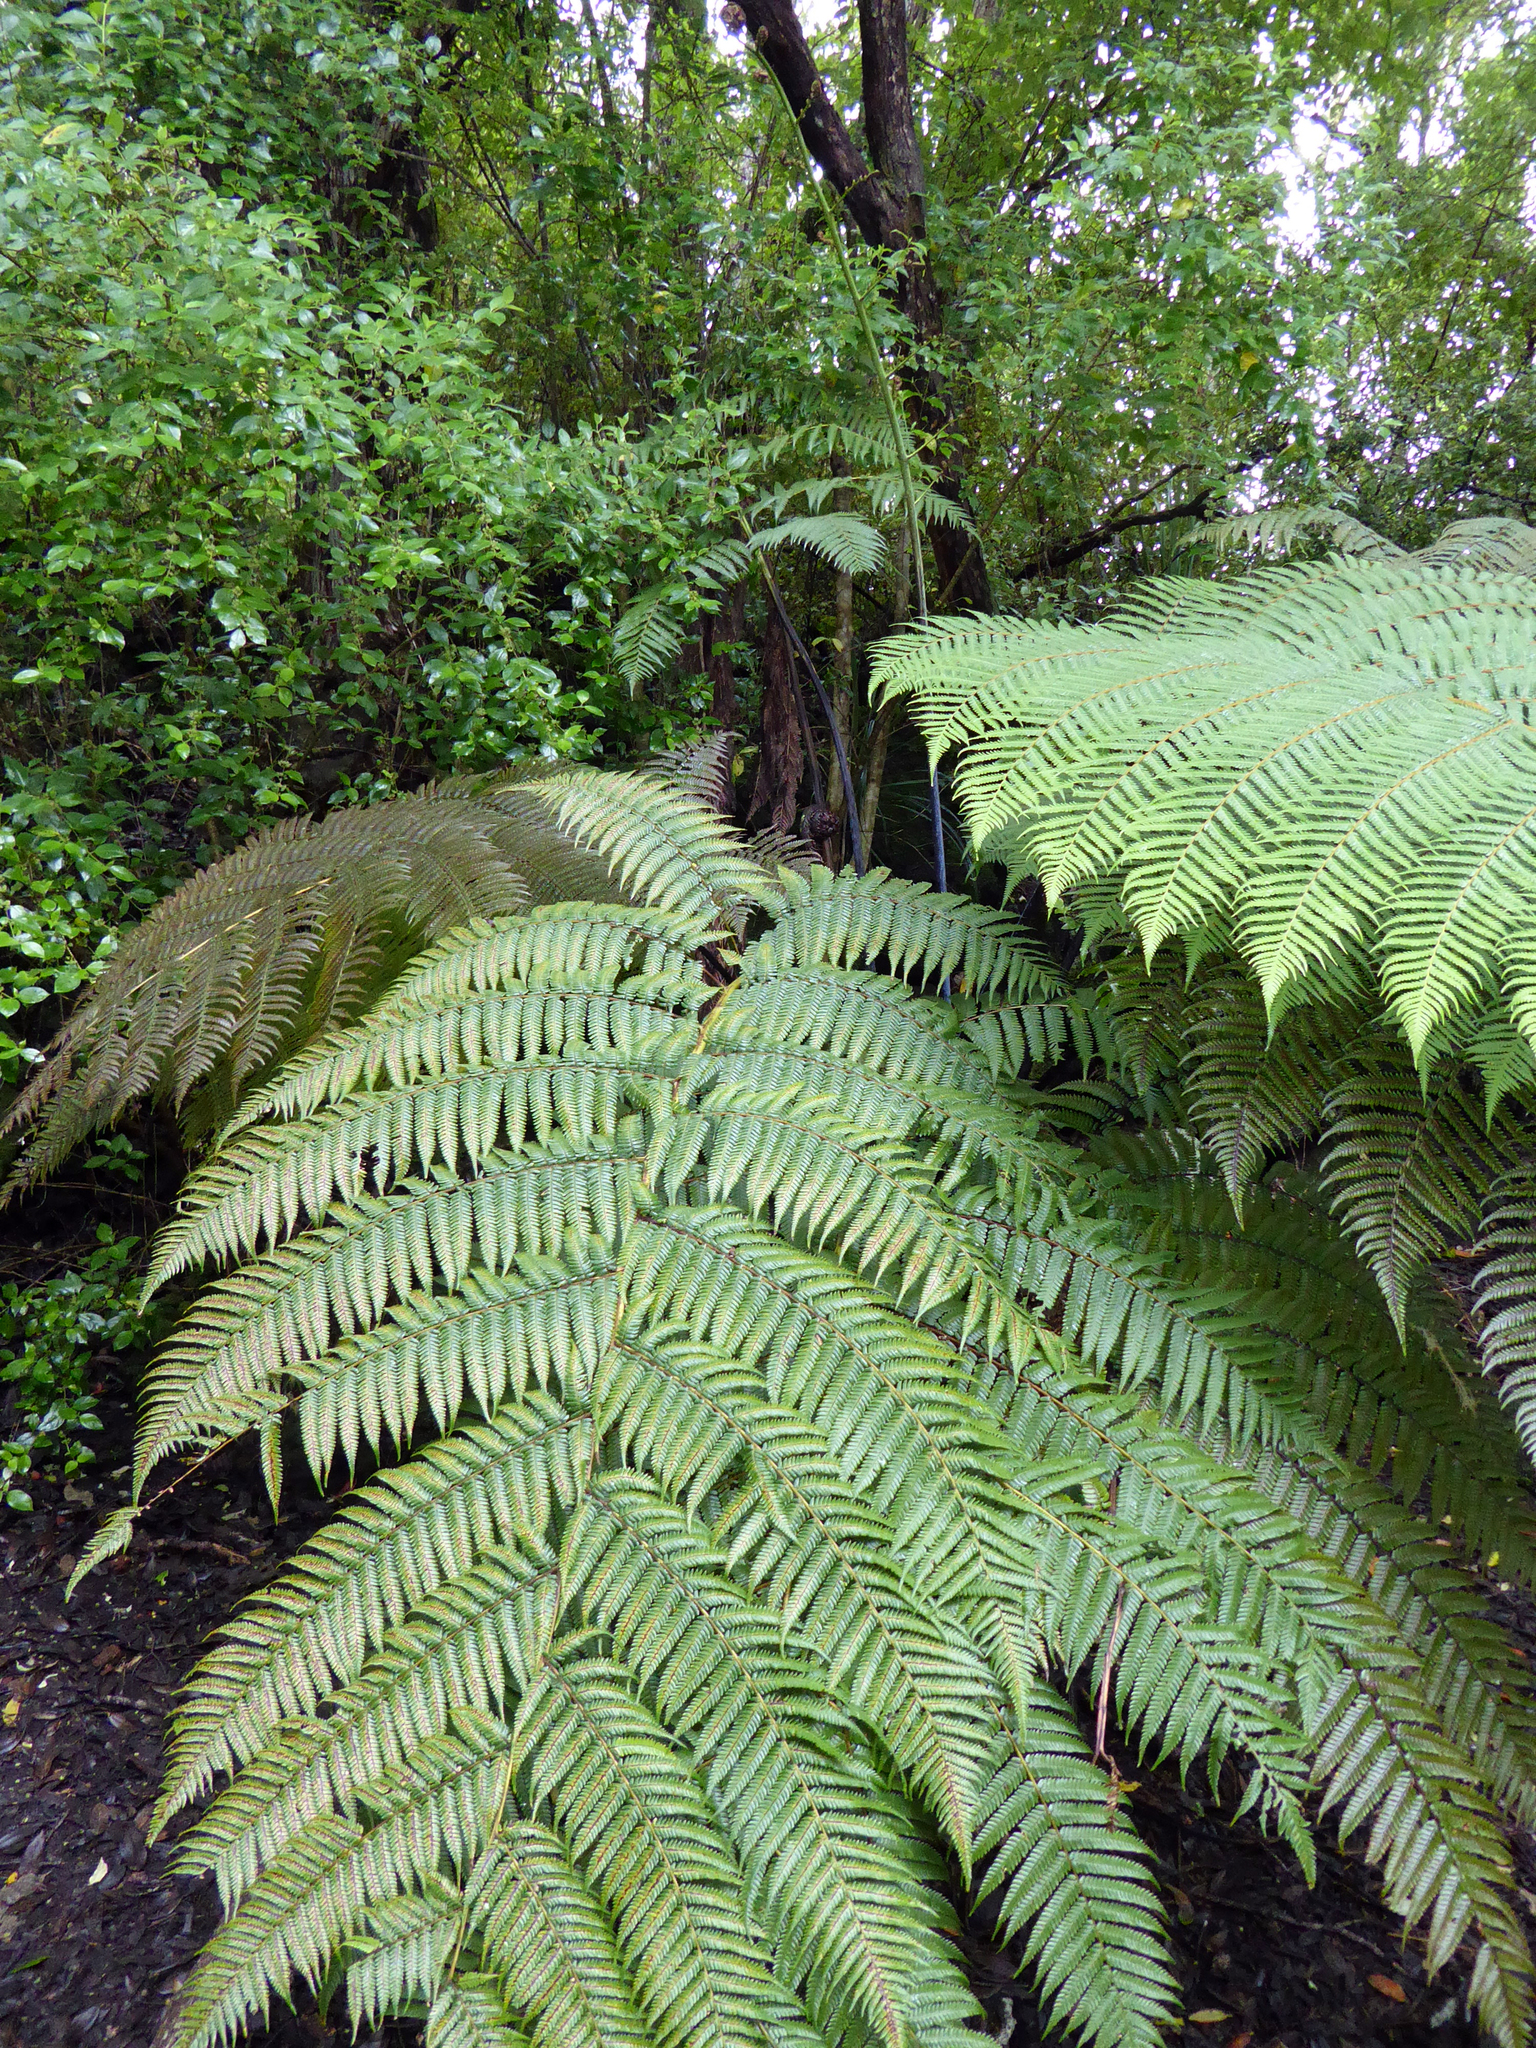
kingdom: Plantae
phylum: Tracheophyta
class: Polypodiopsida
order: Cyatheales
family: Cyatheaceae
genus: Sphaeropteris
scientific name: Sphaeropteris medullaris
